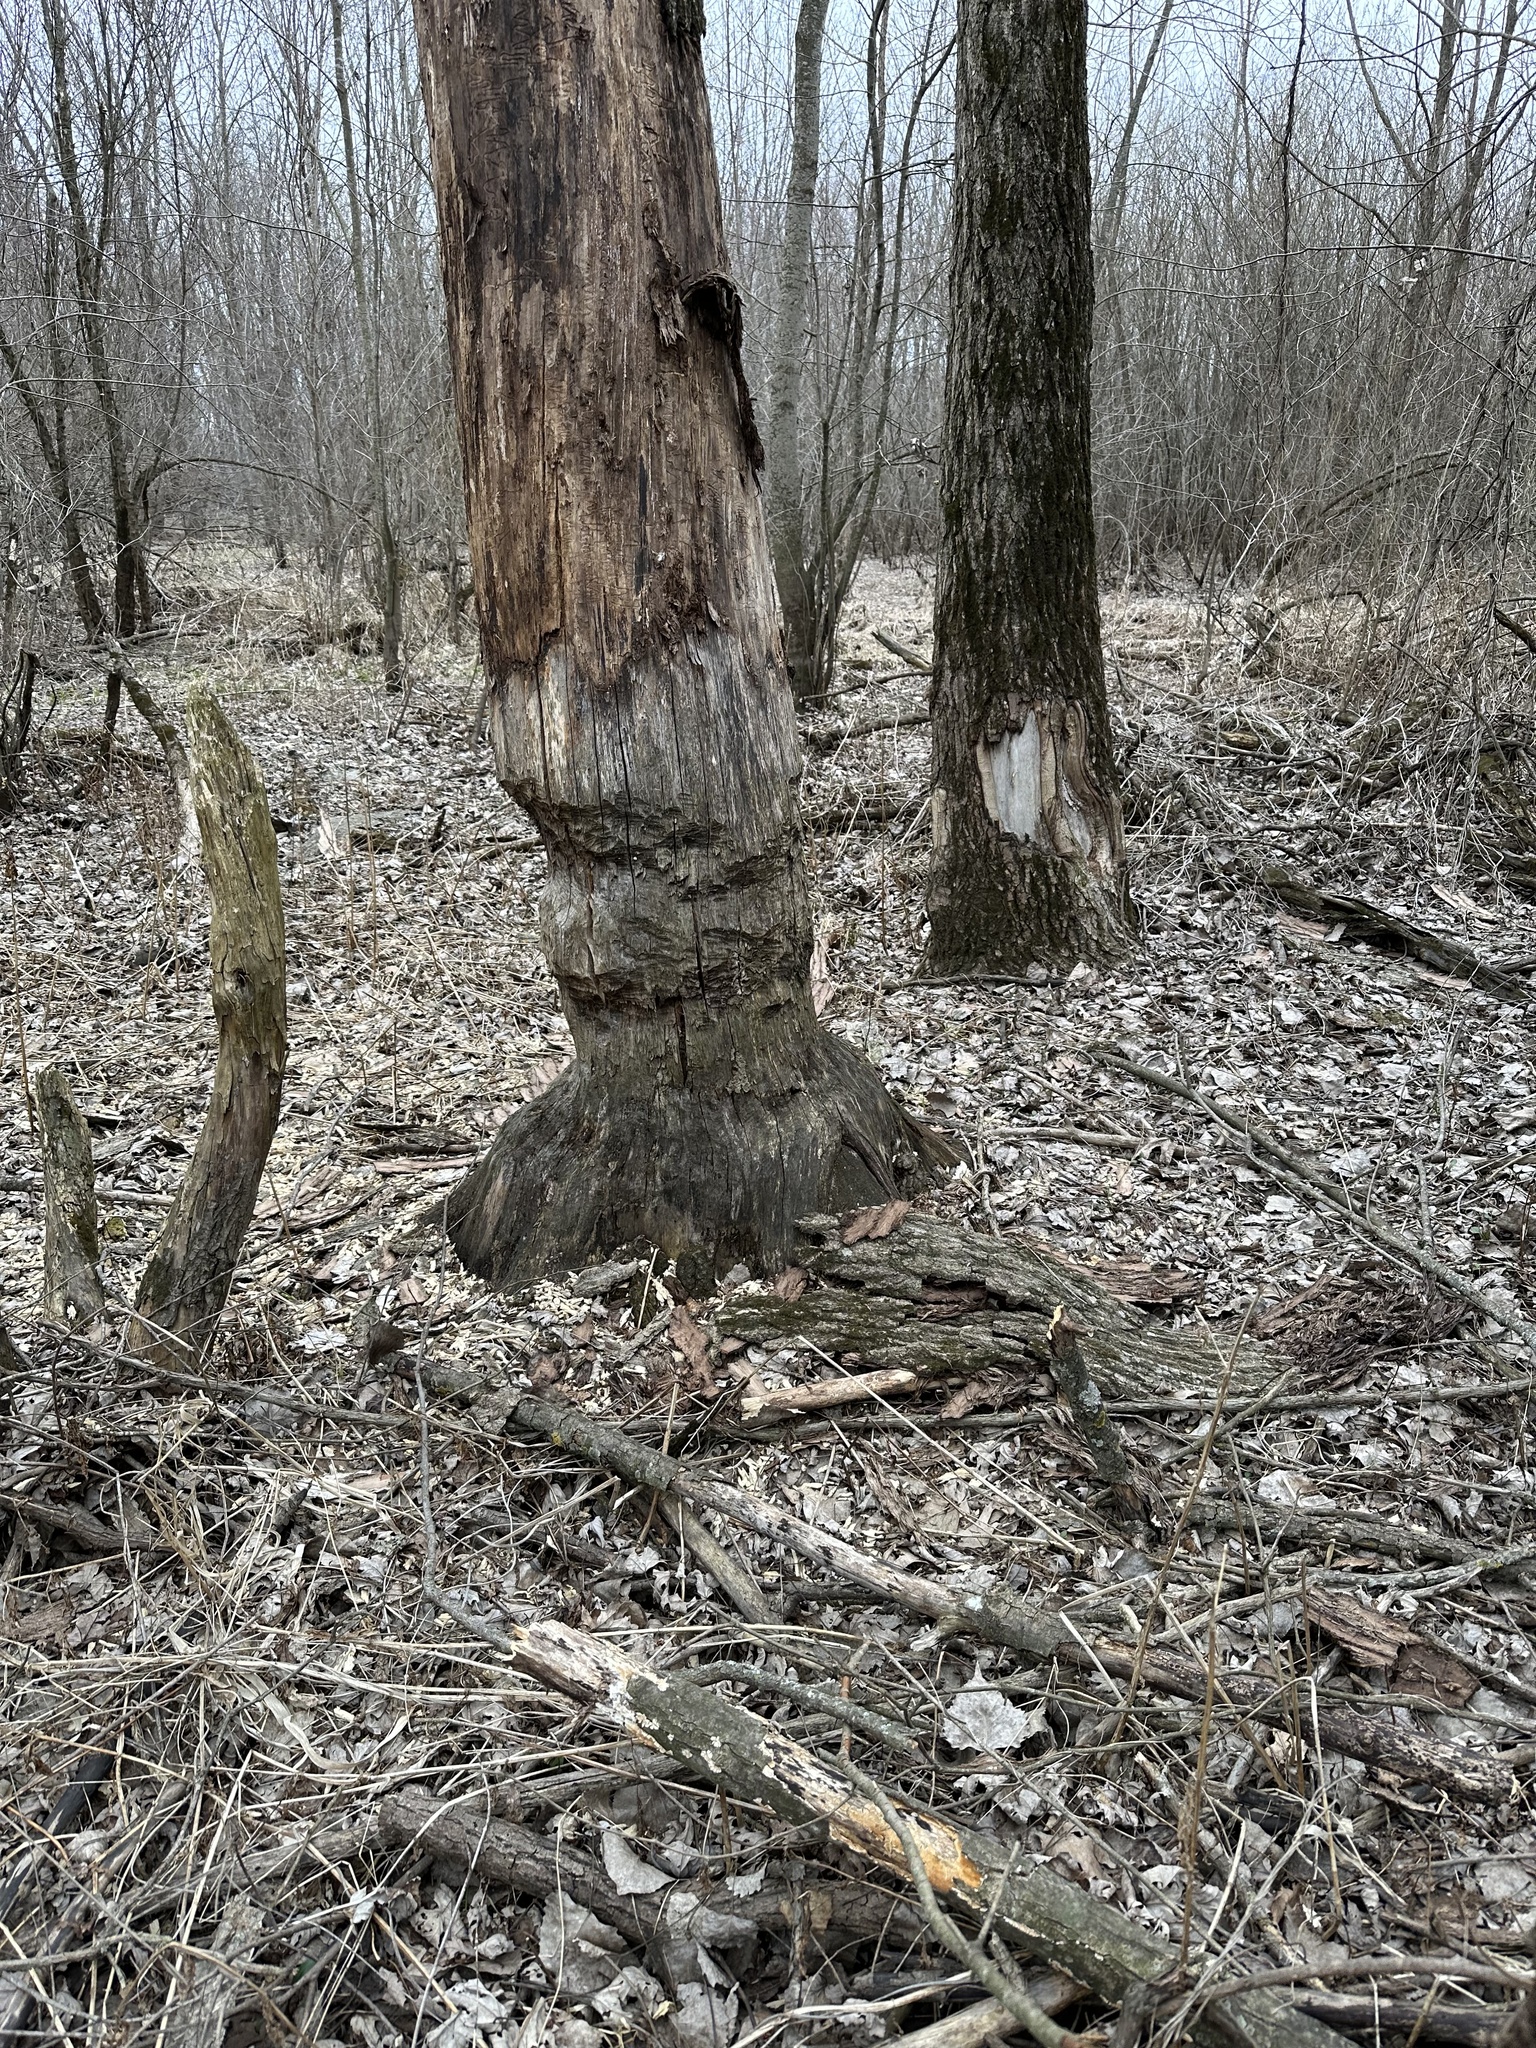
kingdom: Animalia
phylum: Chordata
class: Mammalia
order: Rodentia
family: Castoridae
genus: Castor
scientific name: Castor canadensis
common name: American beaver
